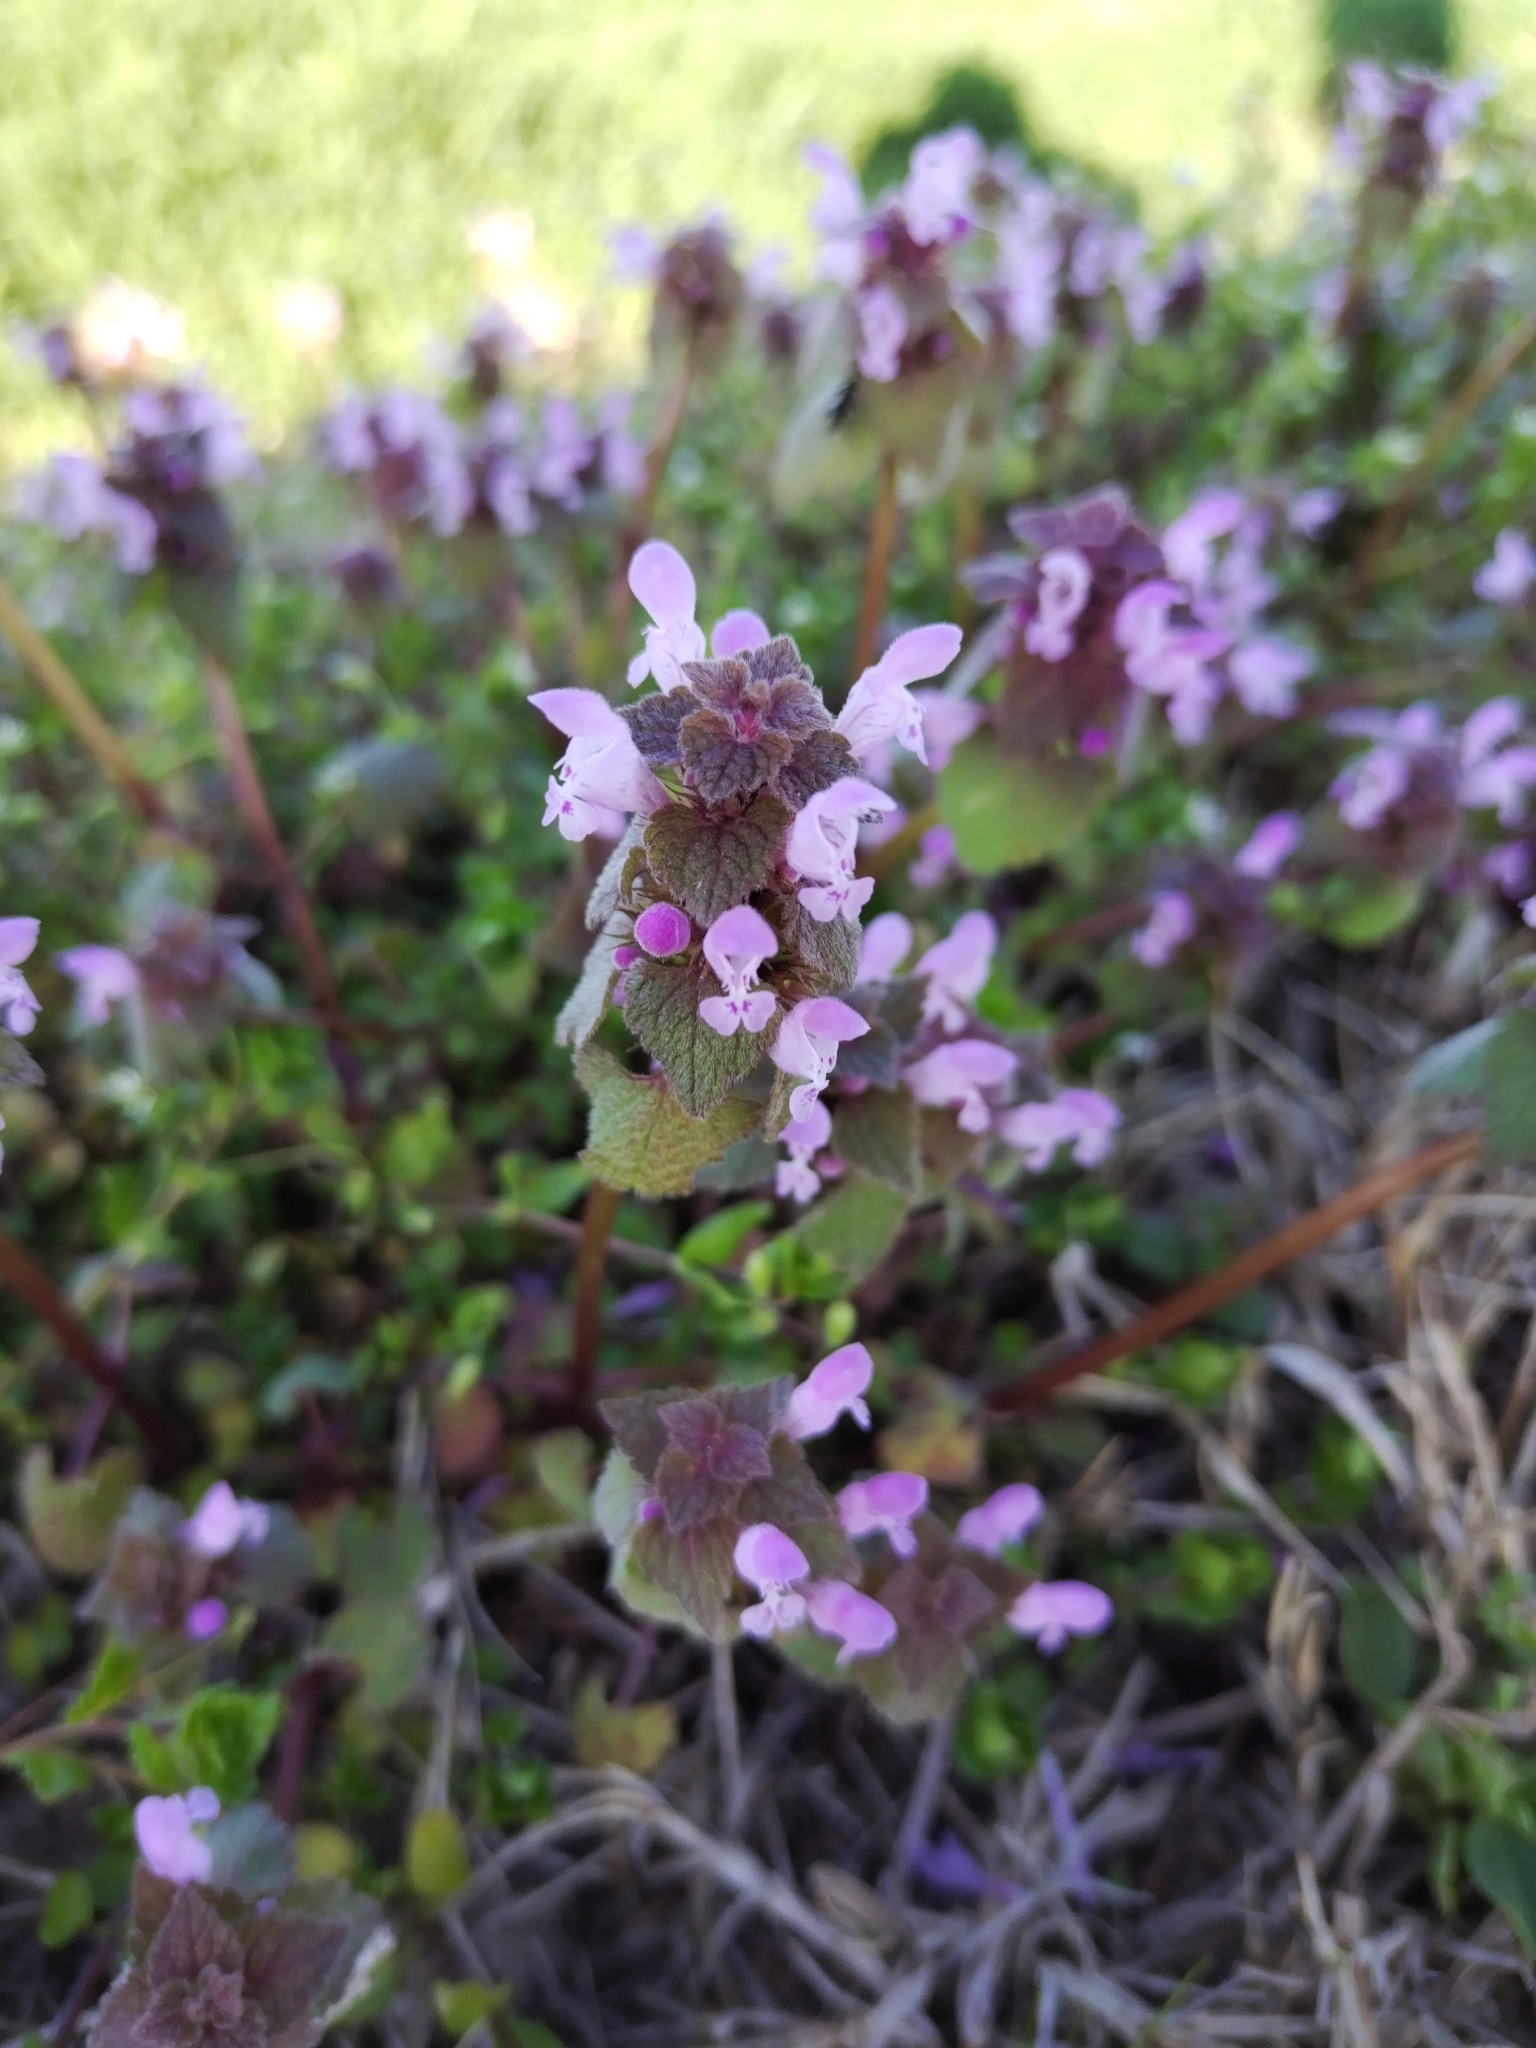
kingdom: Plantae
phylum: Tracheophyta
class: Magnoliopsida
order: Lamiales
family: Lamiaceae
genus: Lamium
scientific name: Lamium purpureum
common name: Red dead-nettle
